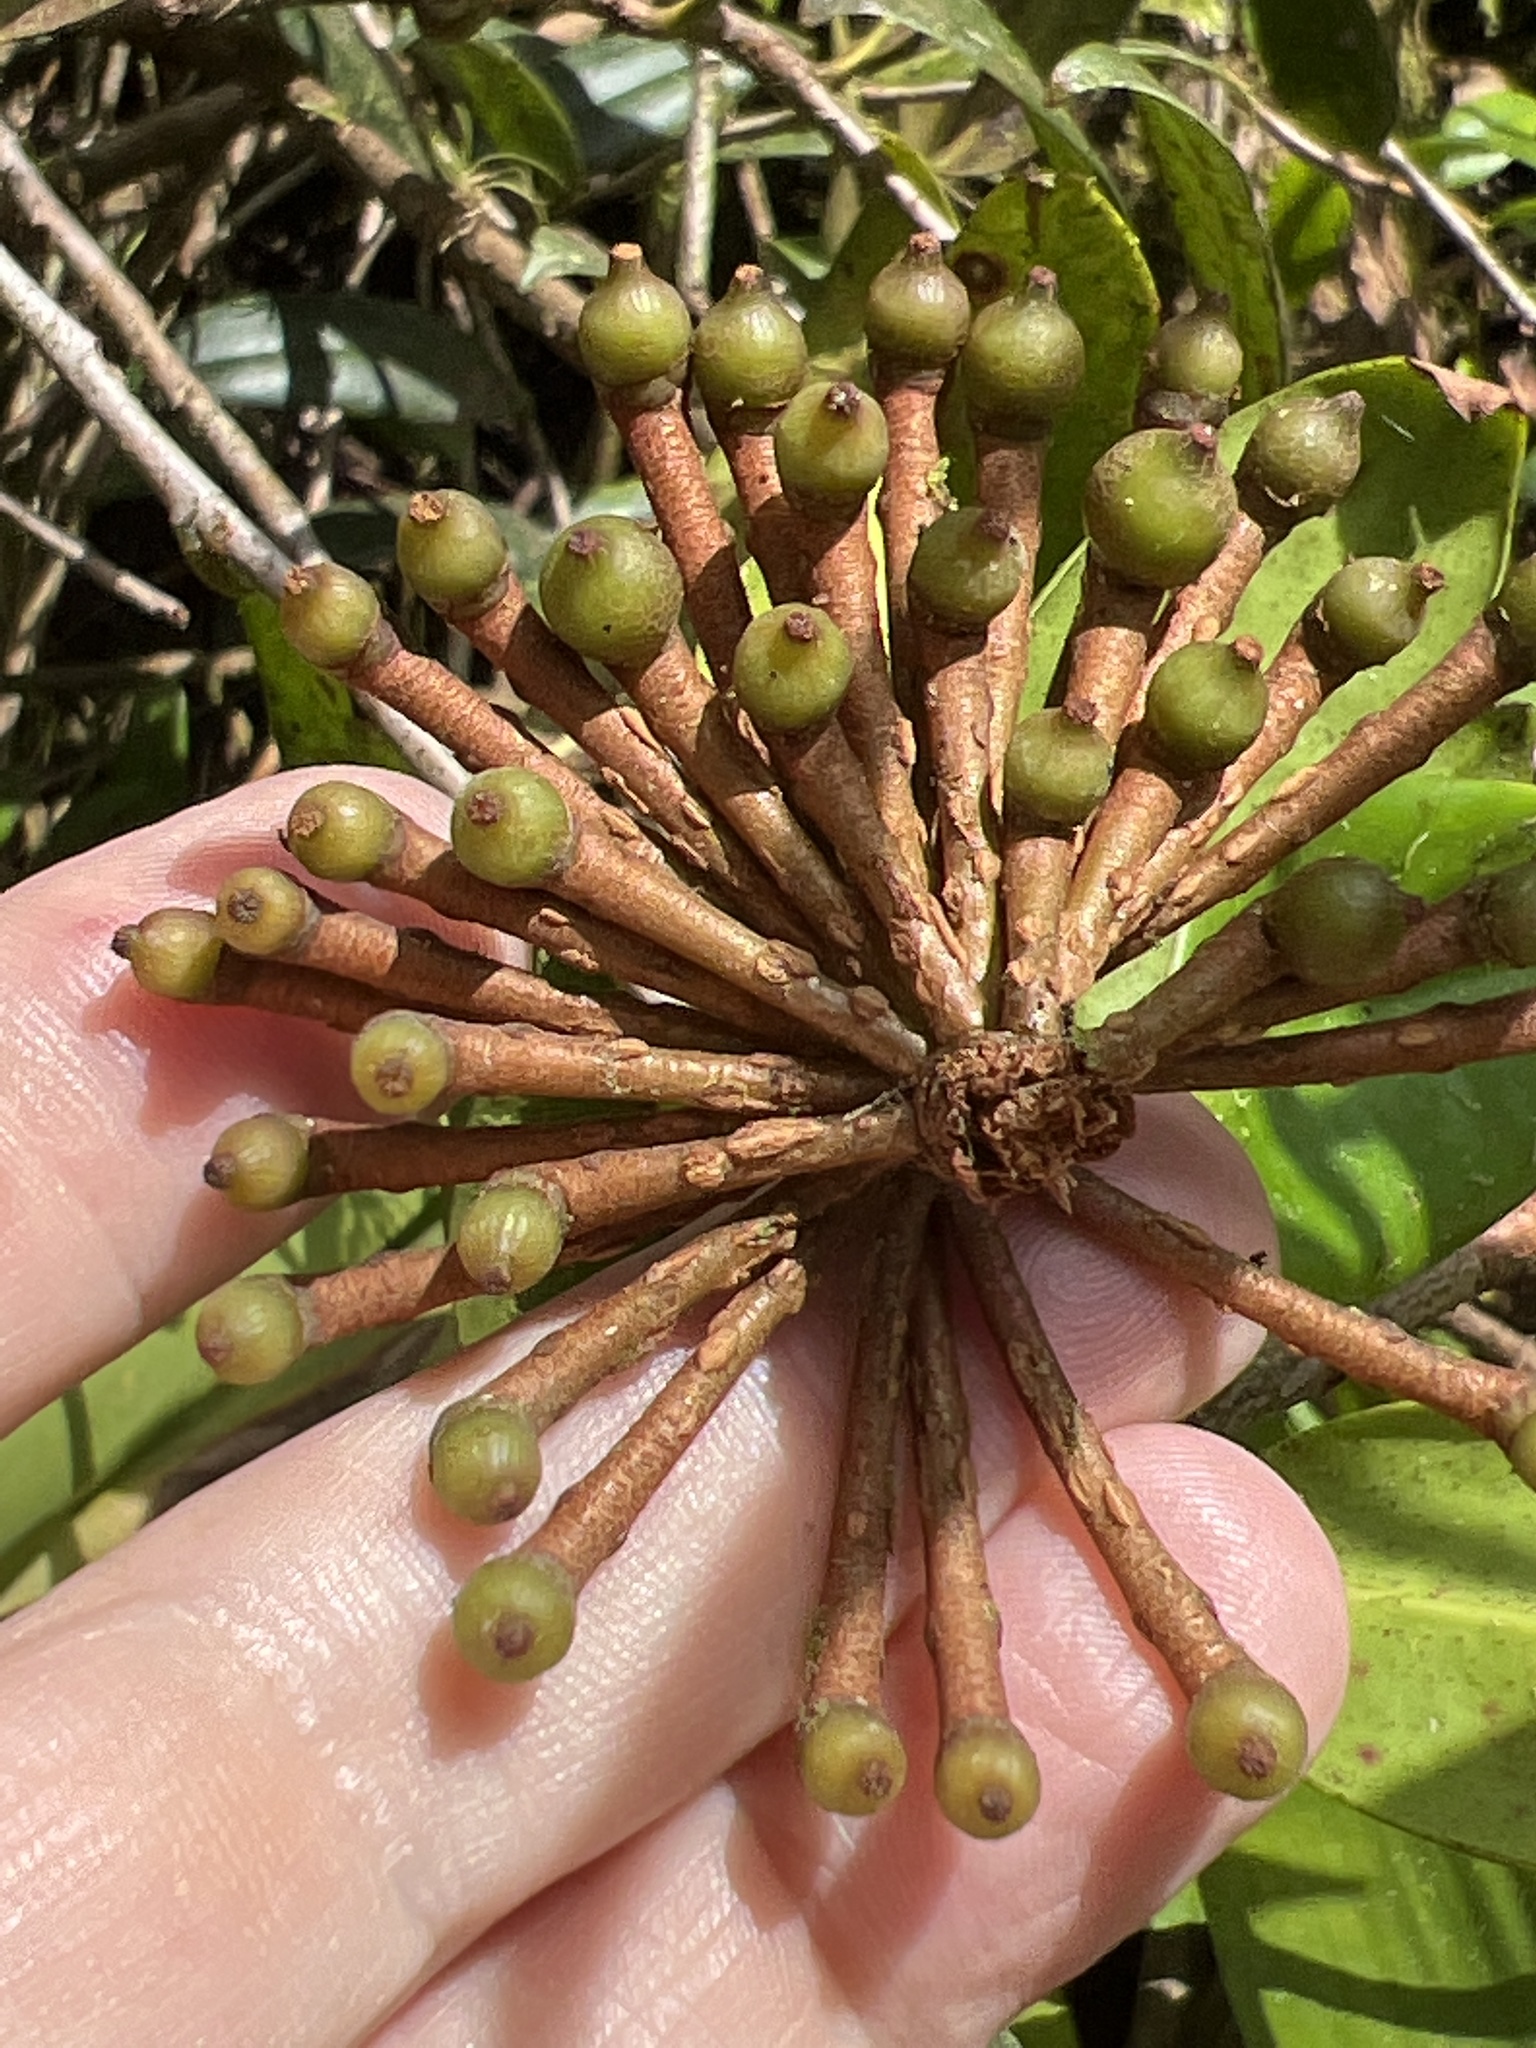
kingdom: Plantae
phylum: Tracheophyta
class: Magnoliopsida
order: Ericales
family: Marcgraviaceae
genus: Marcgravia
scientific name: Marcgravia sintenisii
